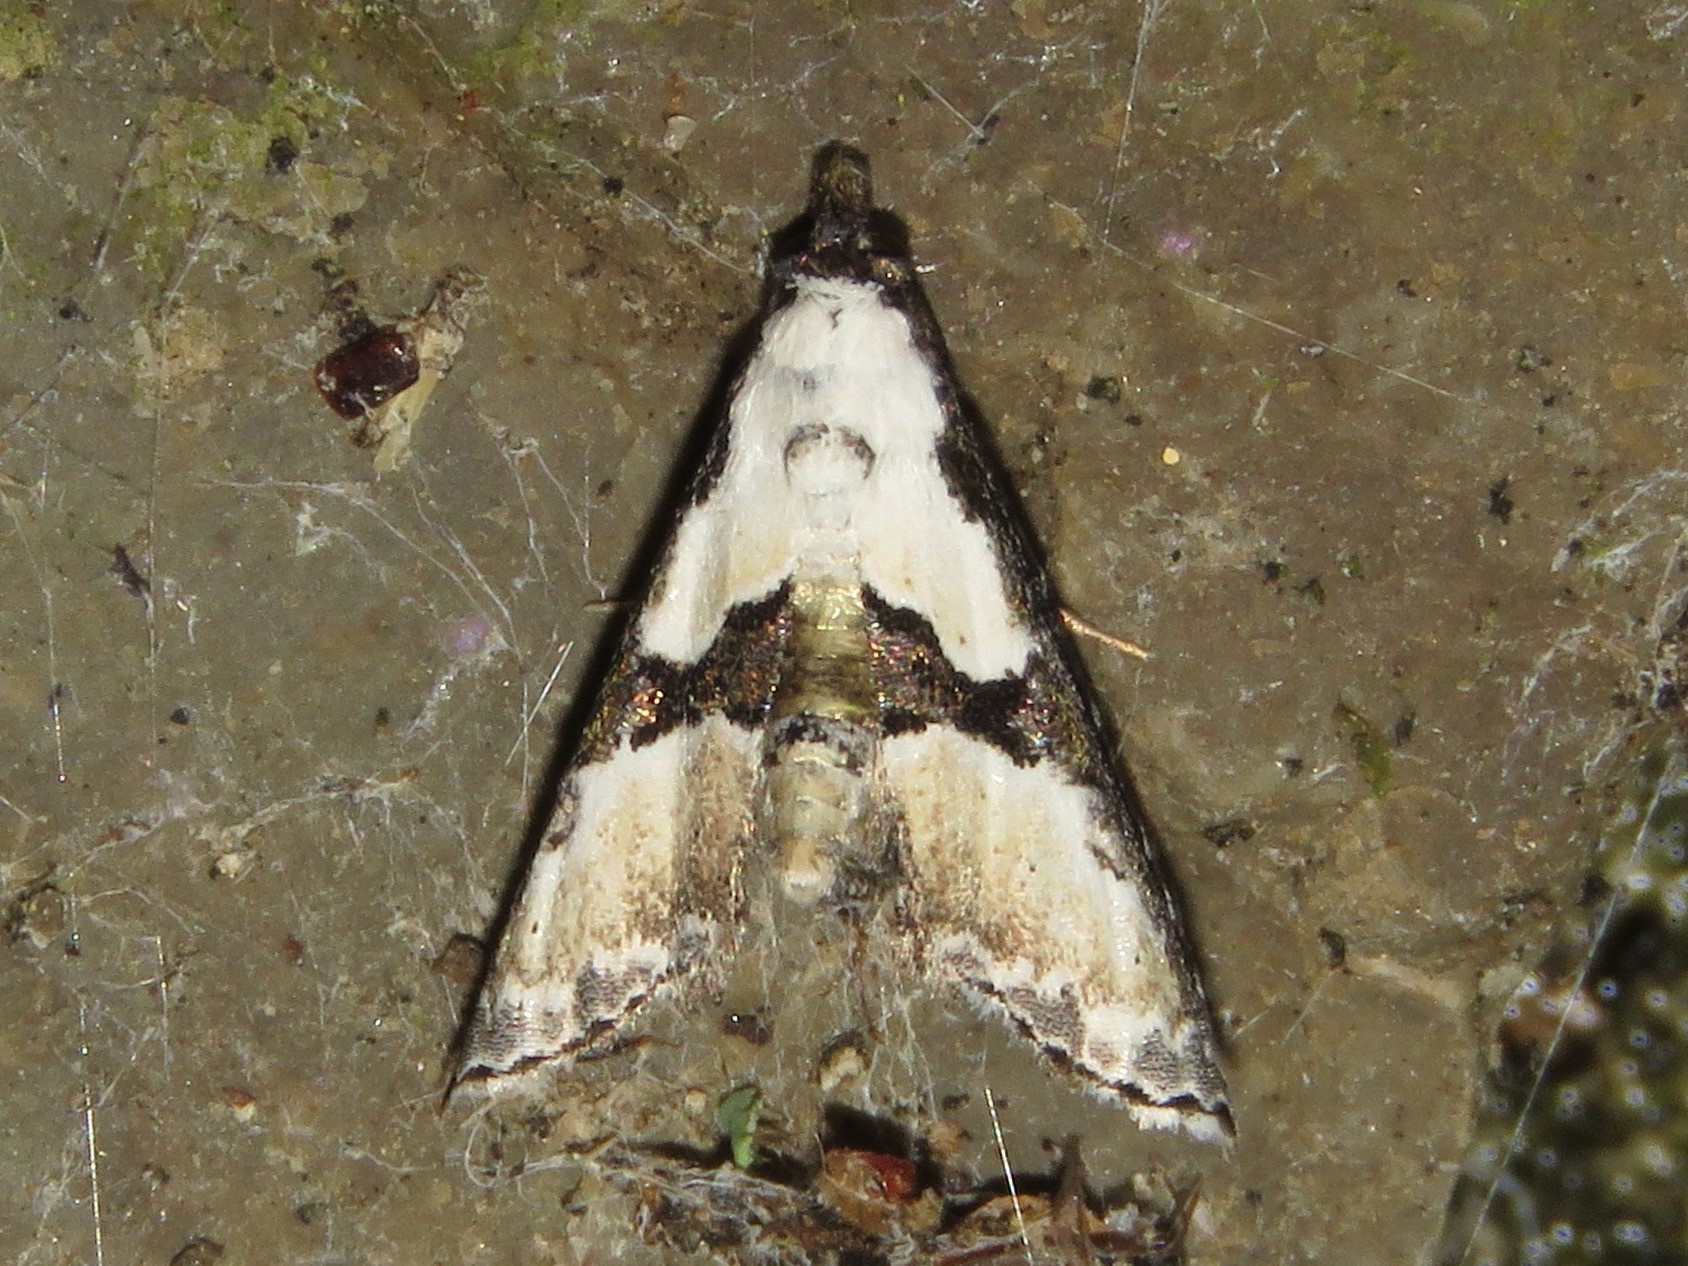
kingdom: Animalia
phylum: Arthropoda
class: Insecta
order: Lepidoptera
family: Noctuidae
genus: Nigetia
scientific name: Nigetia formosalis
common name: Thin-winged owlet
